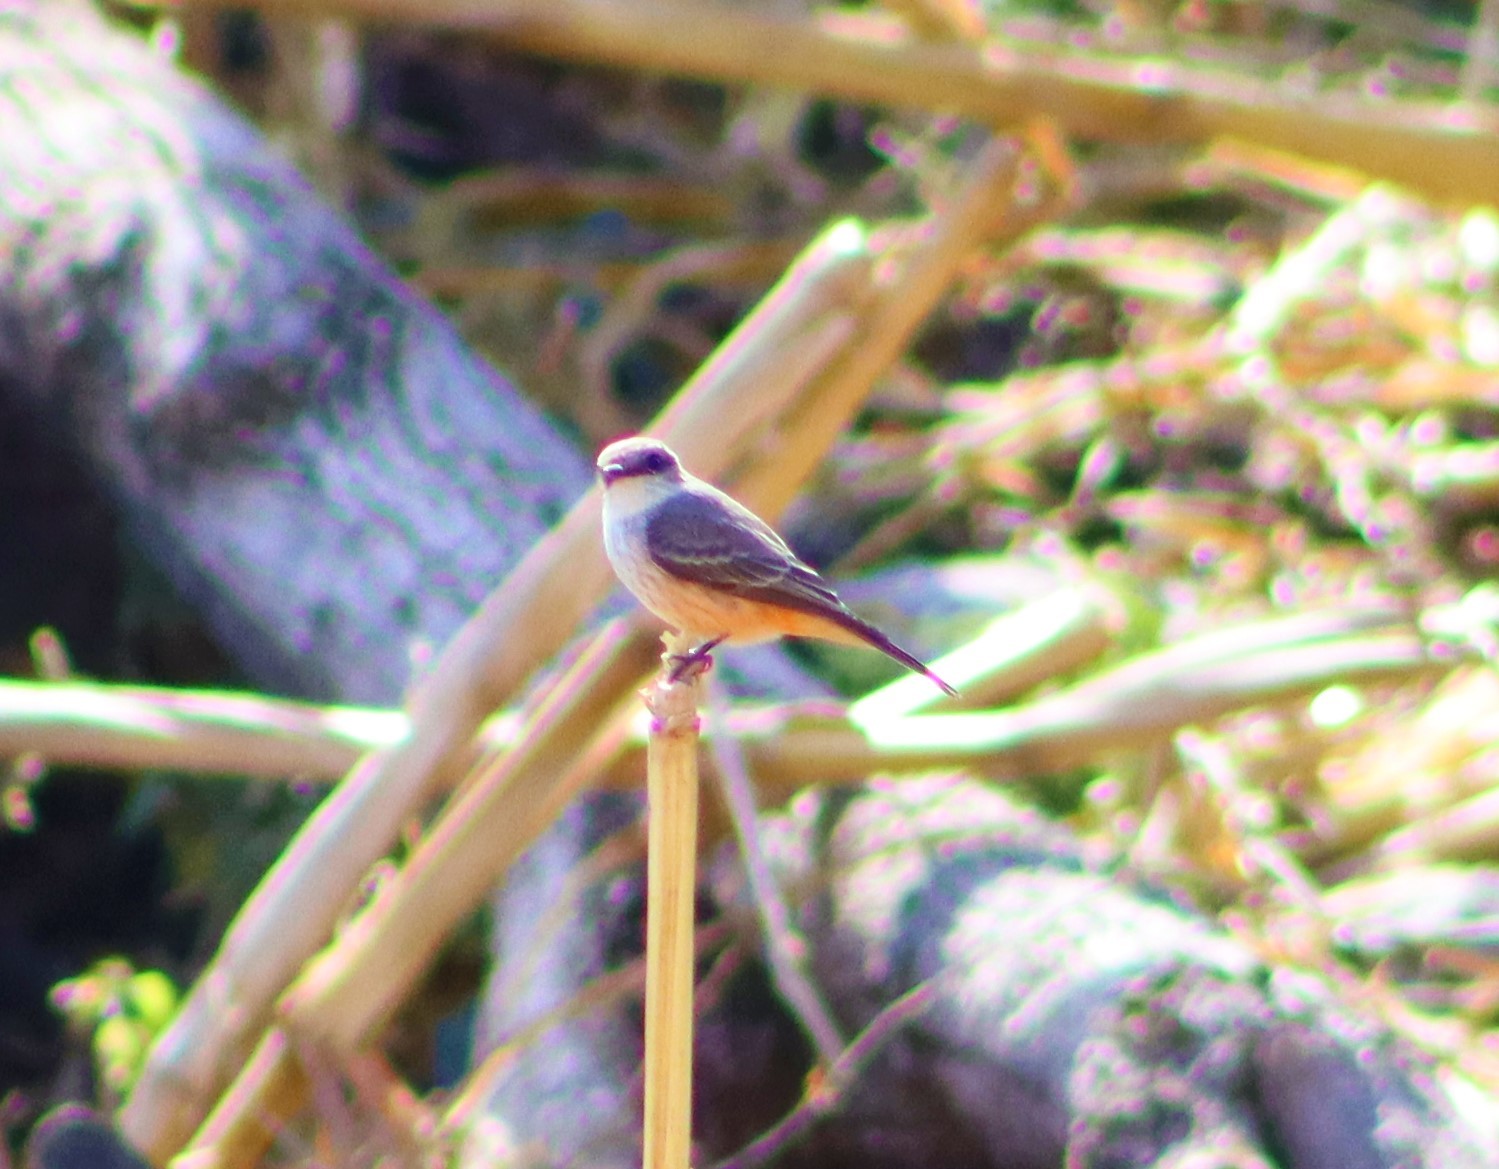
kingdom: Animalia
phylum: Chordata
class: Aves
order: Passeriformes
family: Tyrannidae
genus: Pyrocephalus
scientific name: Pyrocephalus rubinus
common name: Vermilion flycatcher
